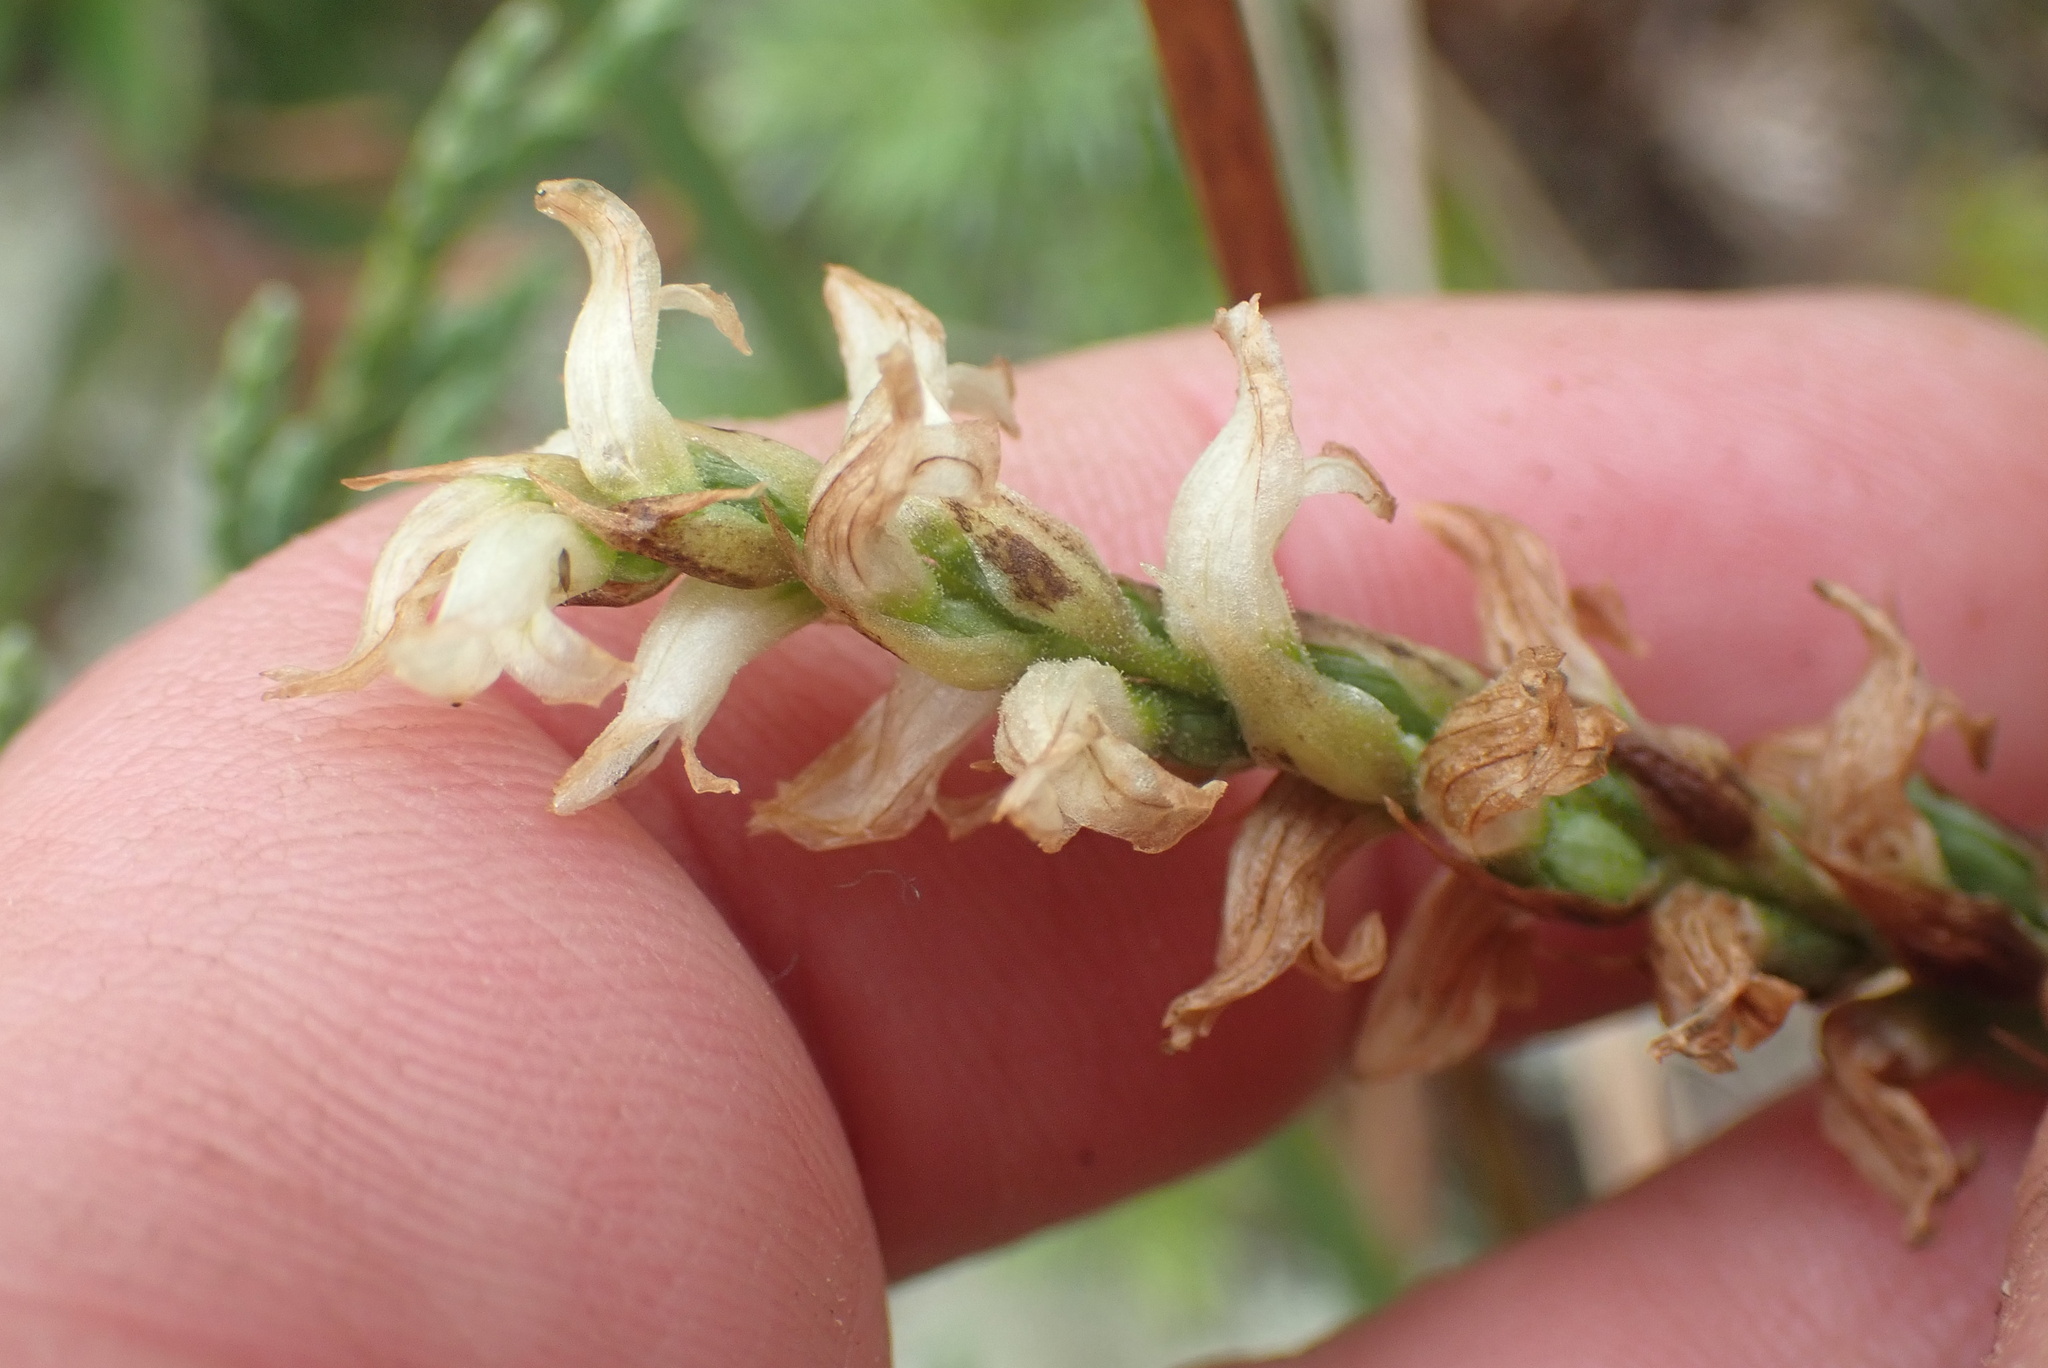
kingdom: Plantae
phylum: Tracheophyta
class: Liliopsida
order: Asparagales
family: Orchidaceae
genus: Spiranthes
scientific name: Spiranthes romanzoffiana
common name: Irish lady's-tresses
